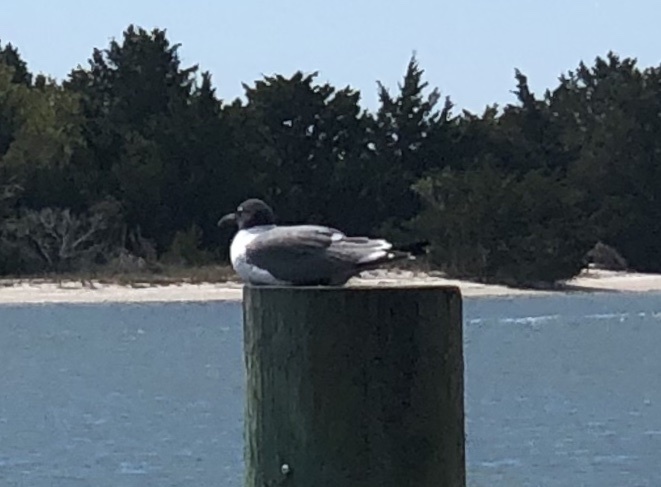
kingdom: Animalia
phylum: Chordata
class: Aves
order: Charadriiformes
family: Laridae
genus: Leucophaeus
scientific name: Leucophaeus atricilla
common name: Laughing gull
